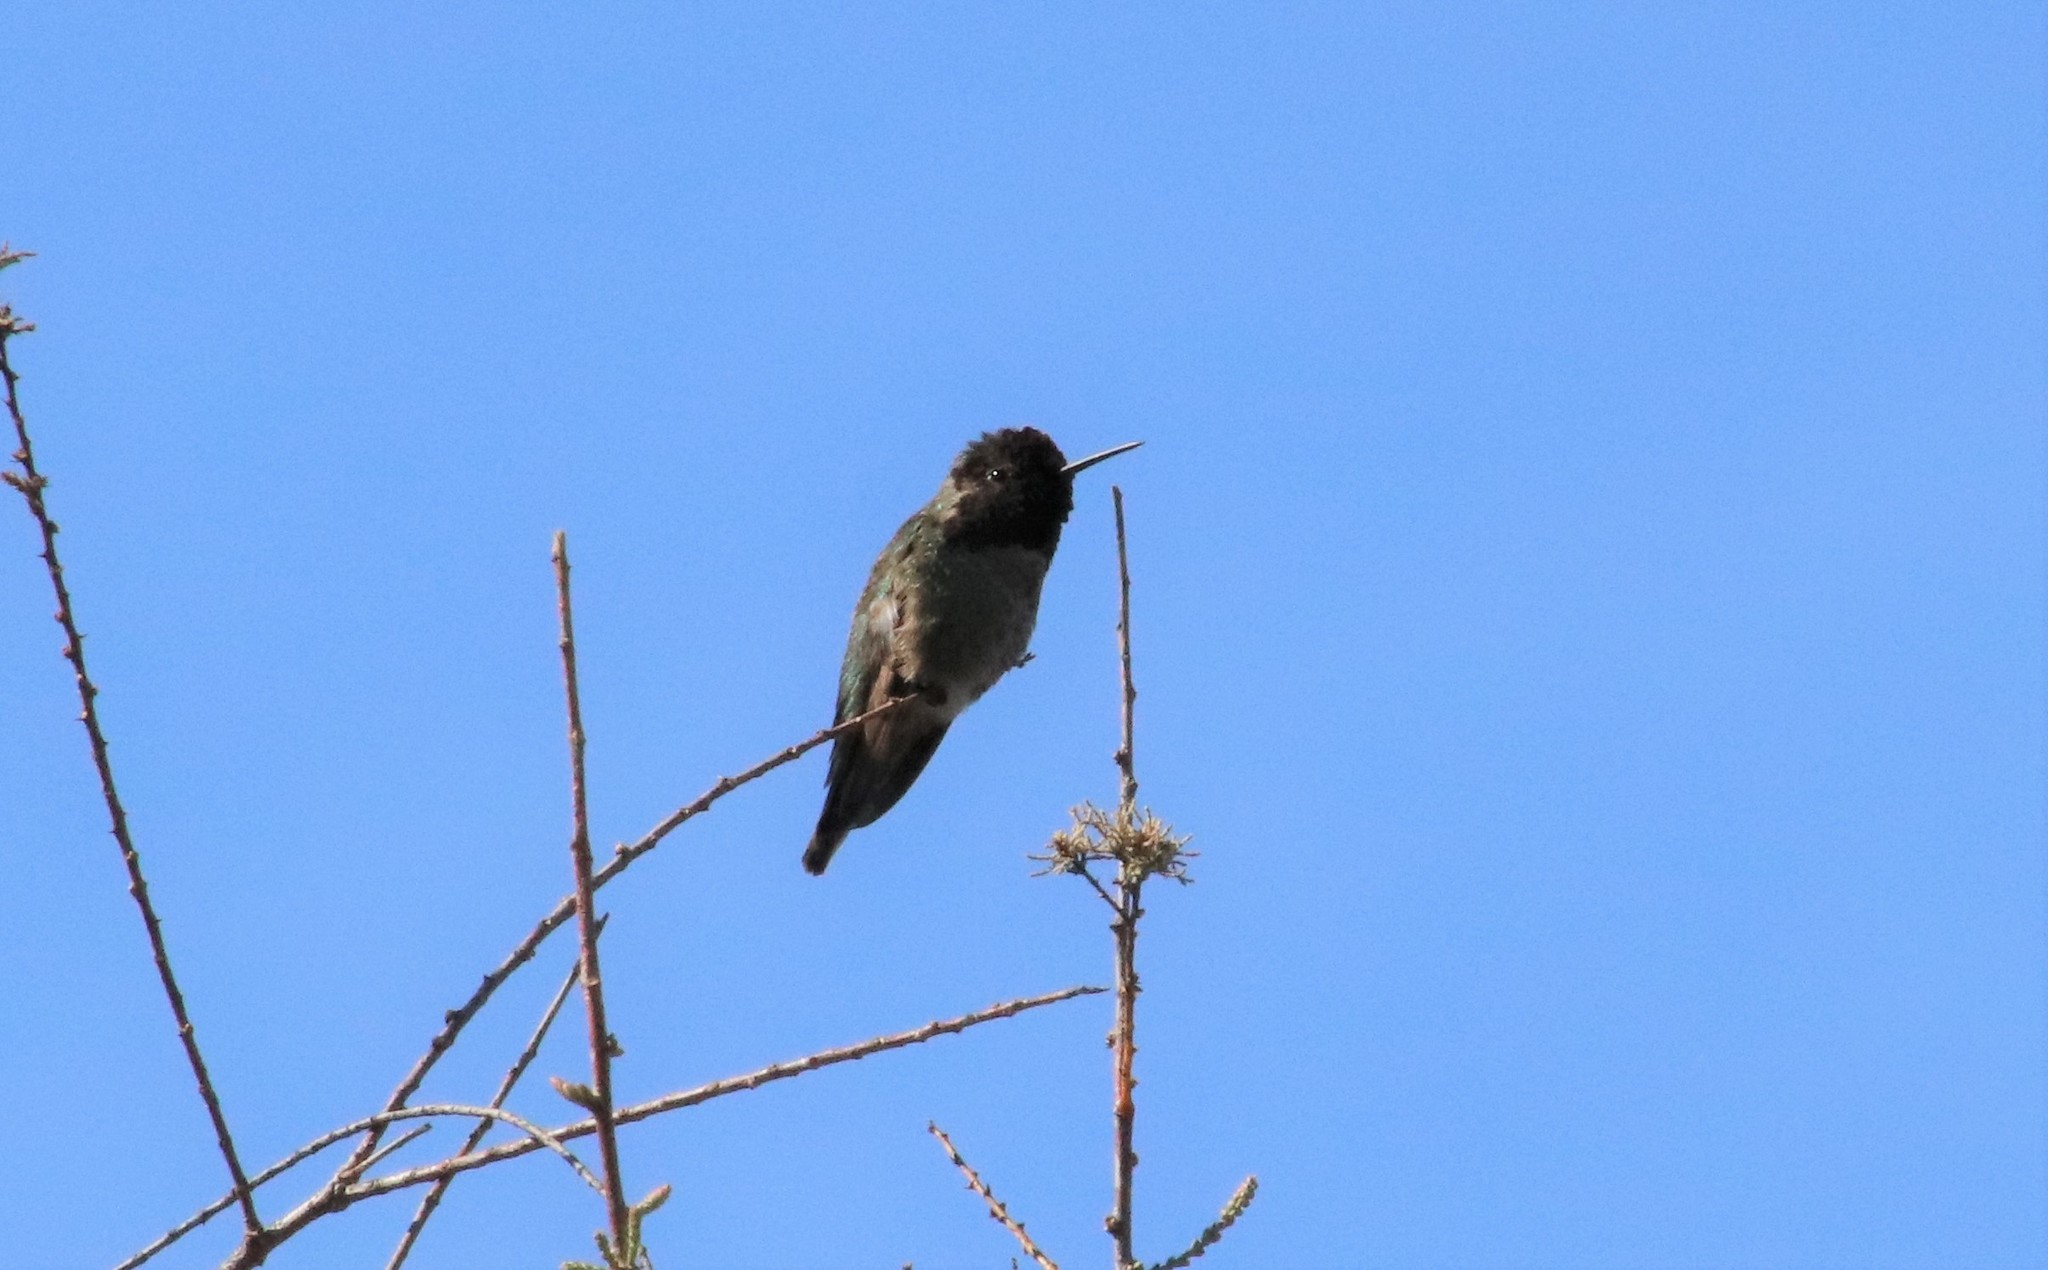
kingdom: Animalia
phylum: Chordata
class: Aves
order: Apodiformes
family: Trochilidae
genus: Calypte
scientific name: Calypte anna
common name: Anna's hummingbird
